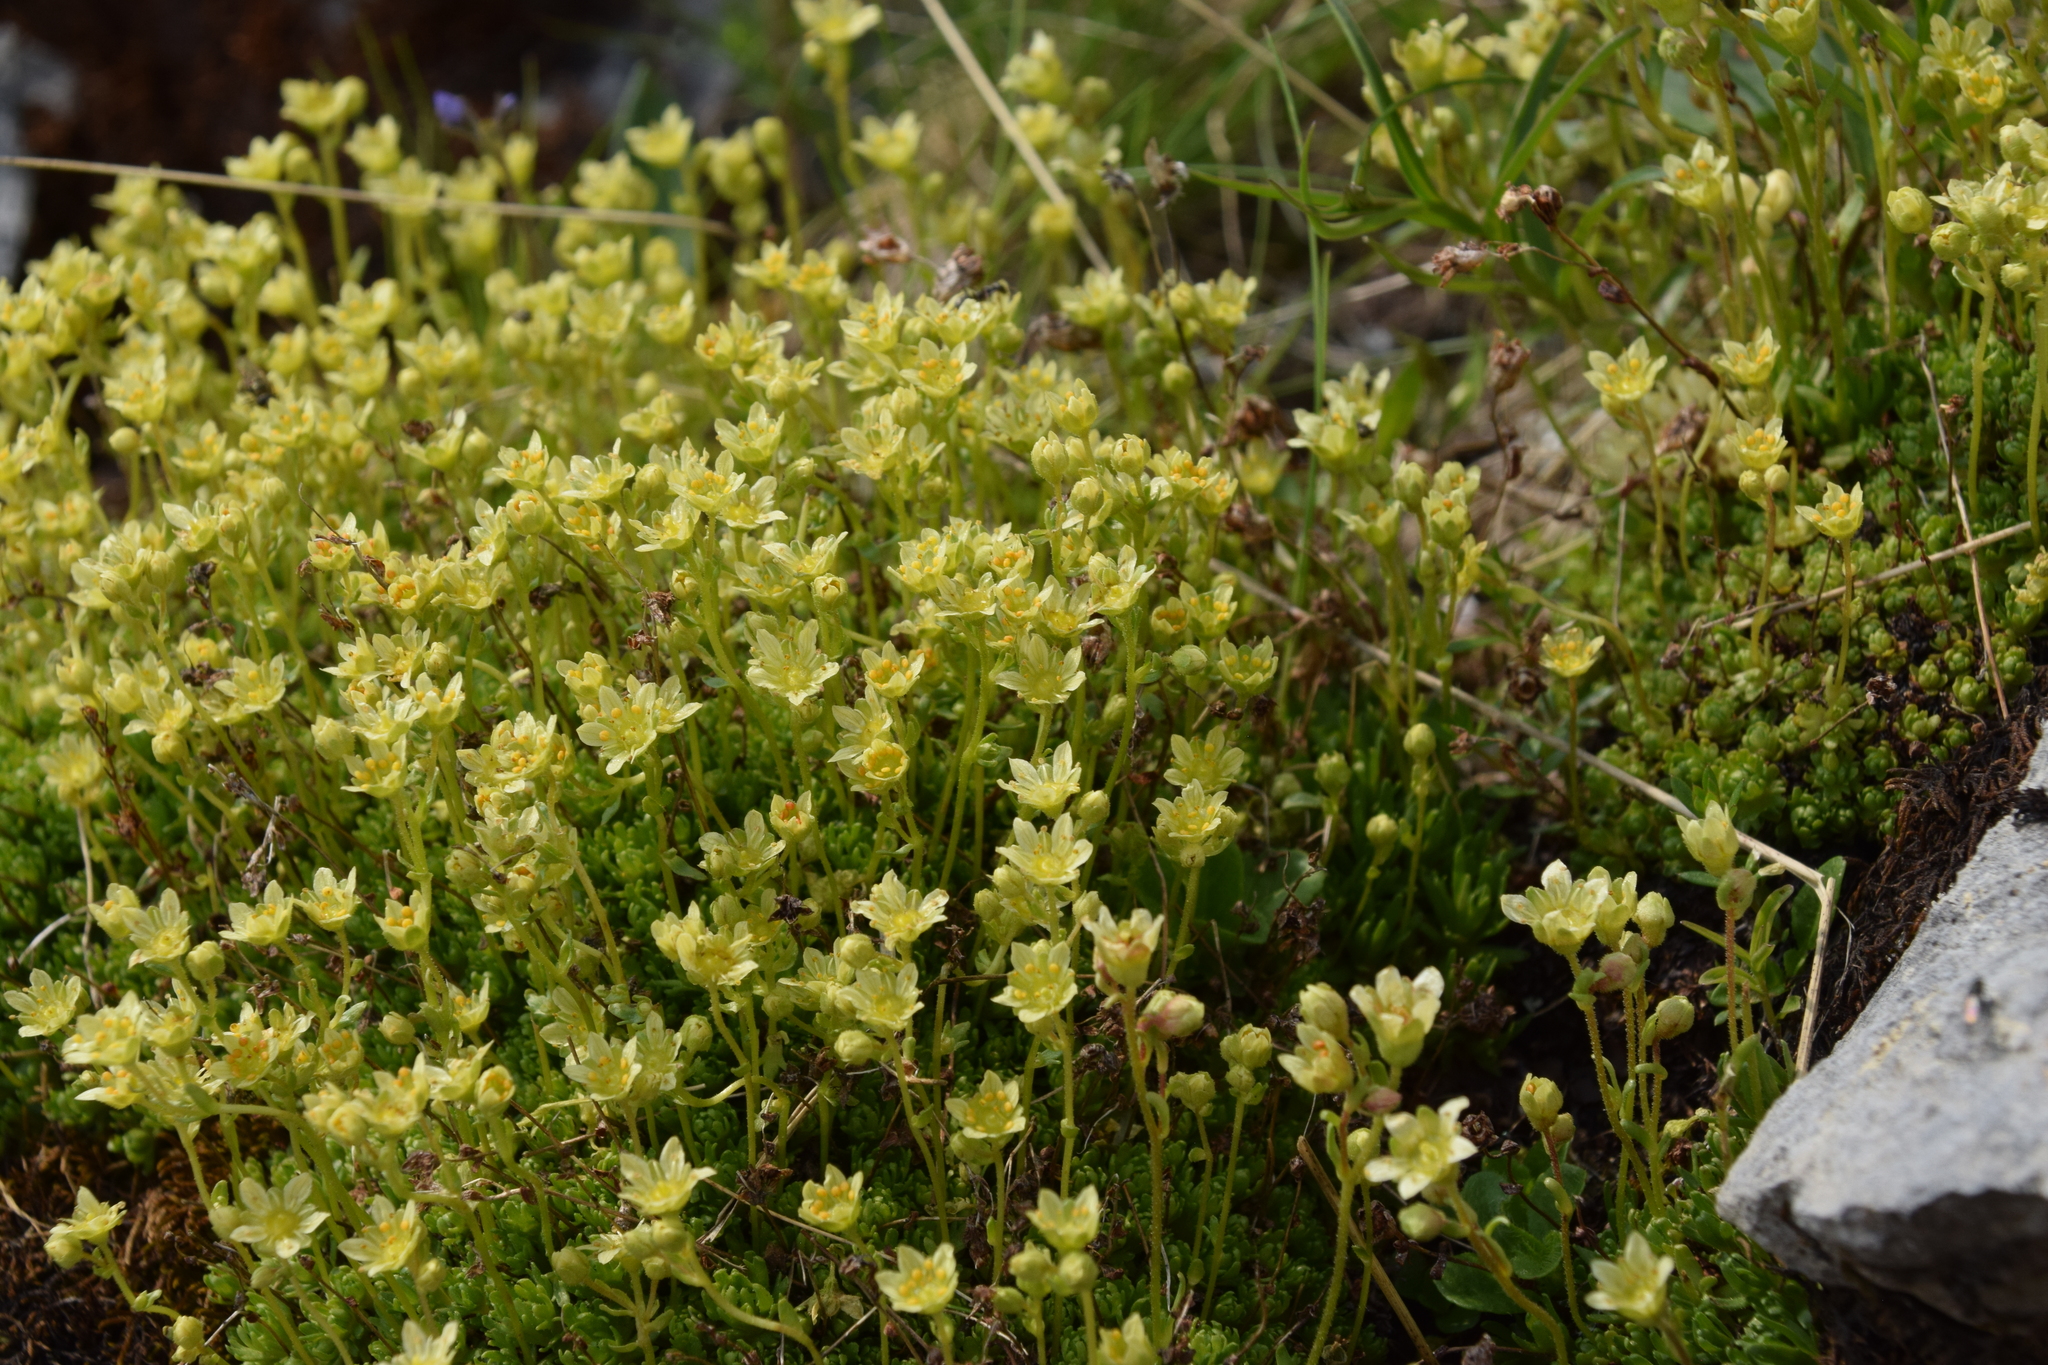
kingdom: Plantae
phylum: Tracheophyta
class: Magnoliopsida
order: Saxifragales
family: Saxifragaceae
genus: Saxifraga
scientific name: Saxifraga moschata
